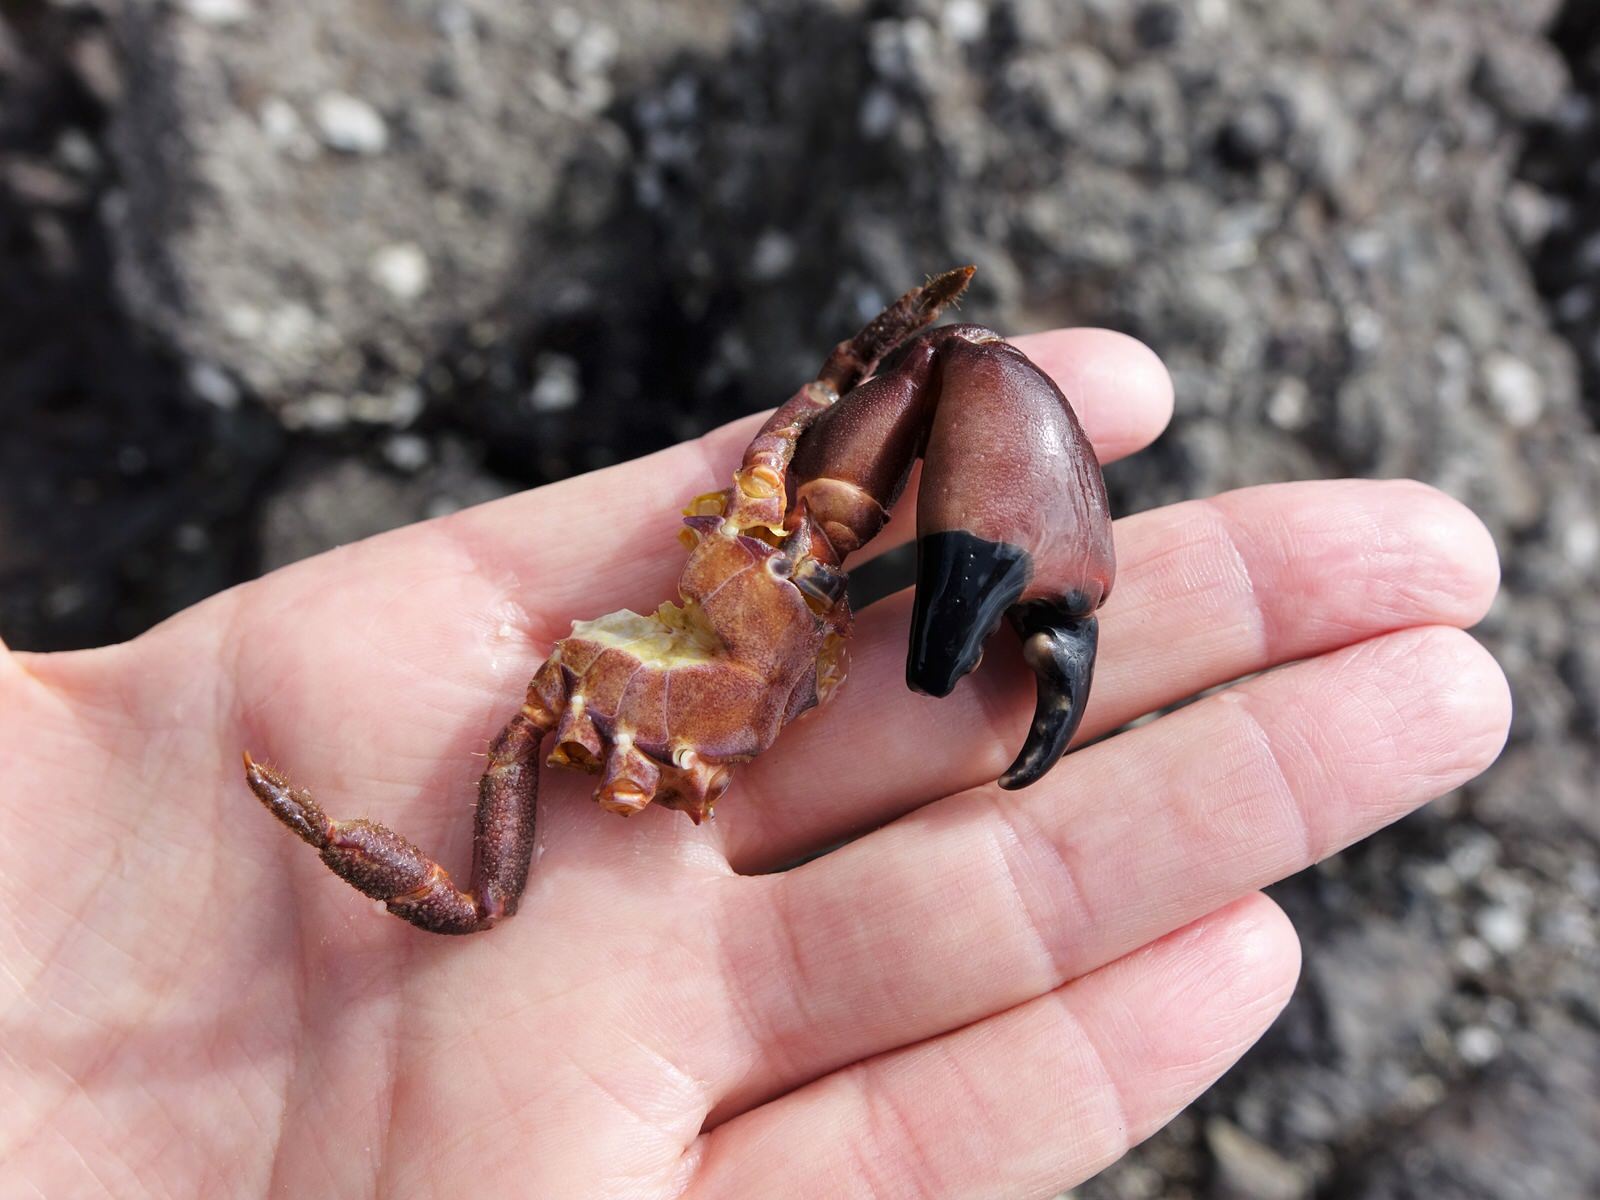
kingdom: Animalia
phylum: Arthropoda
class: Malacostraca
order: Decapoda
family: Oziidae
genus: Ozius
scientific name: Ozius deplanatus
